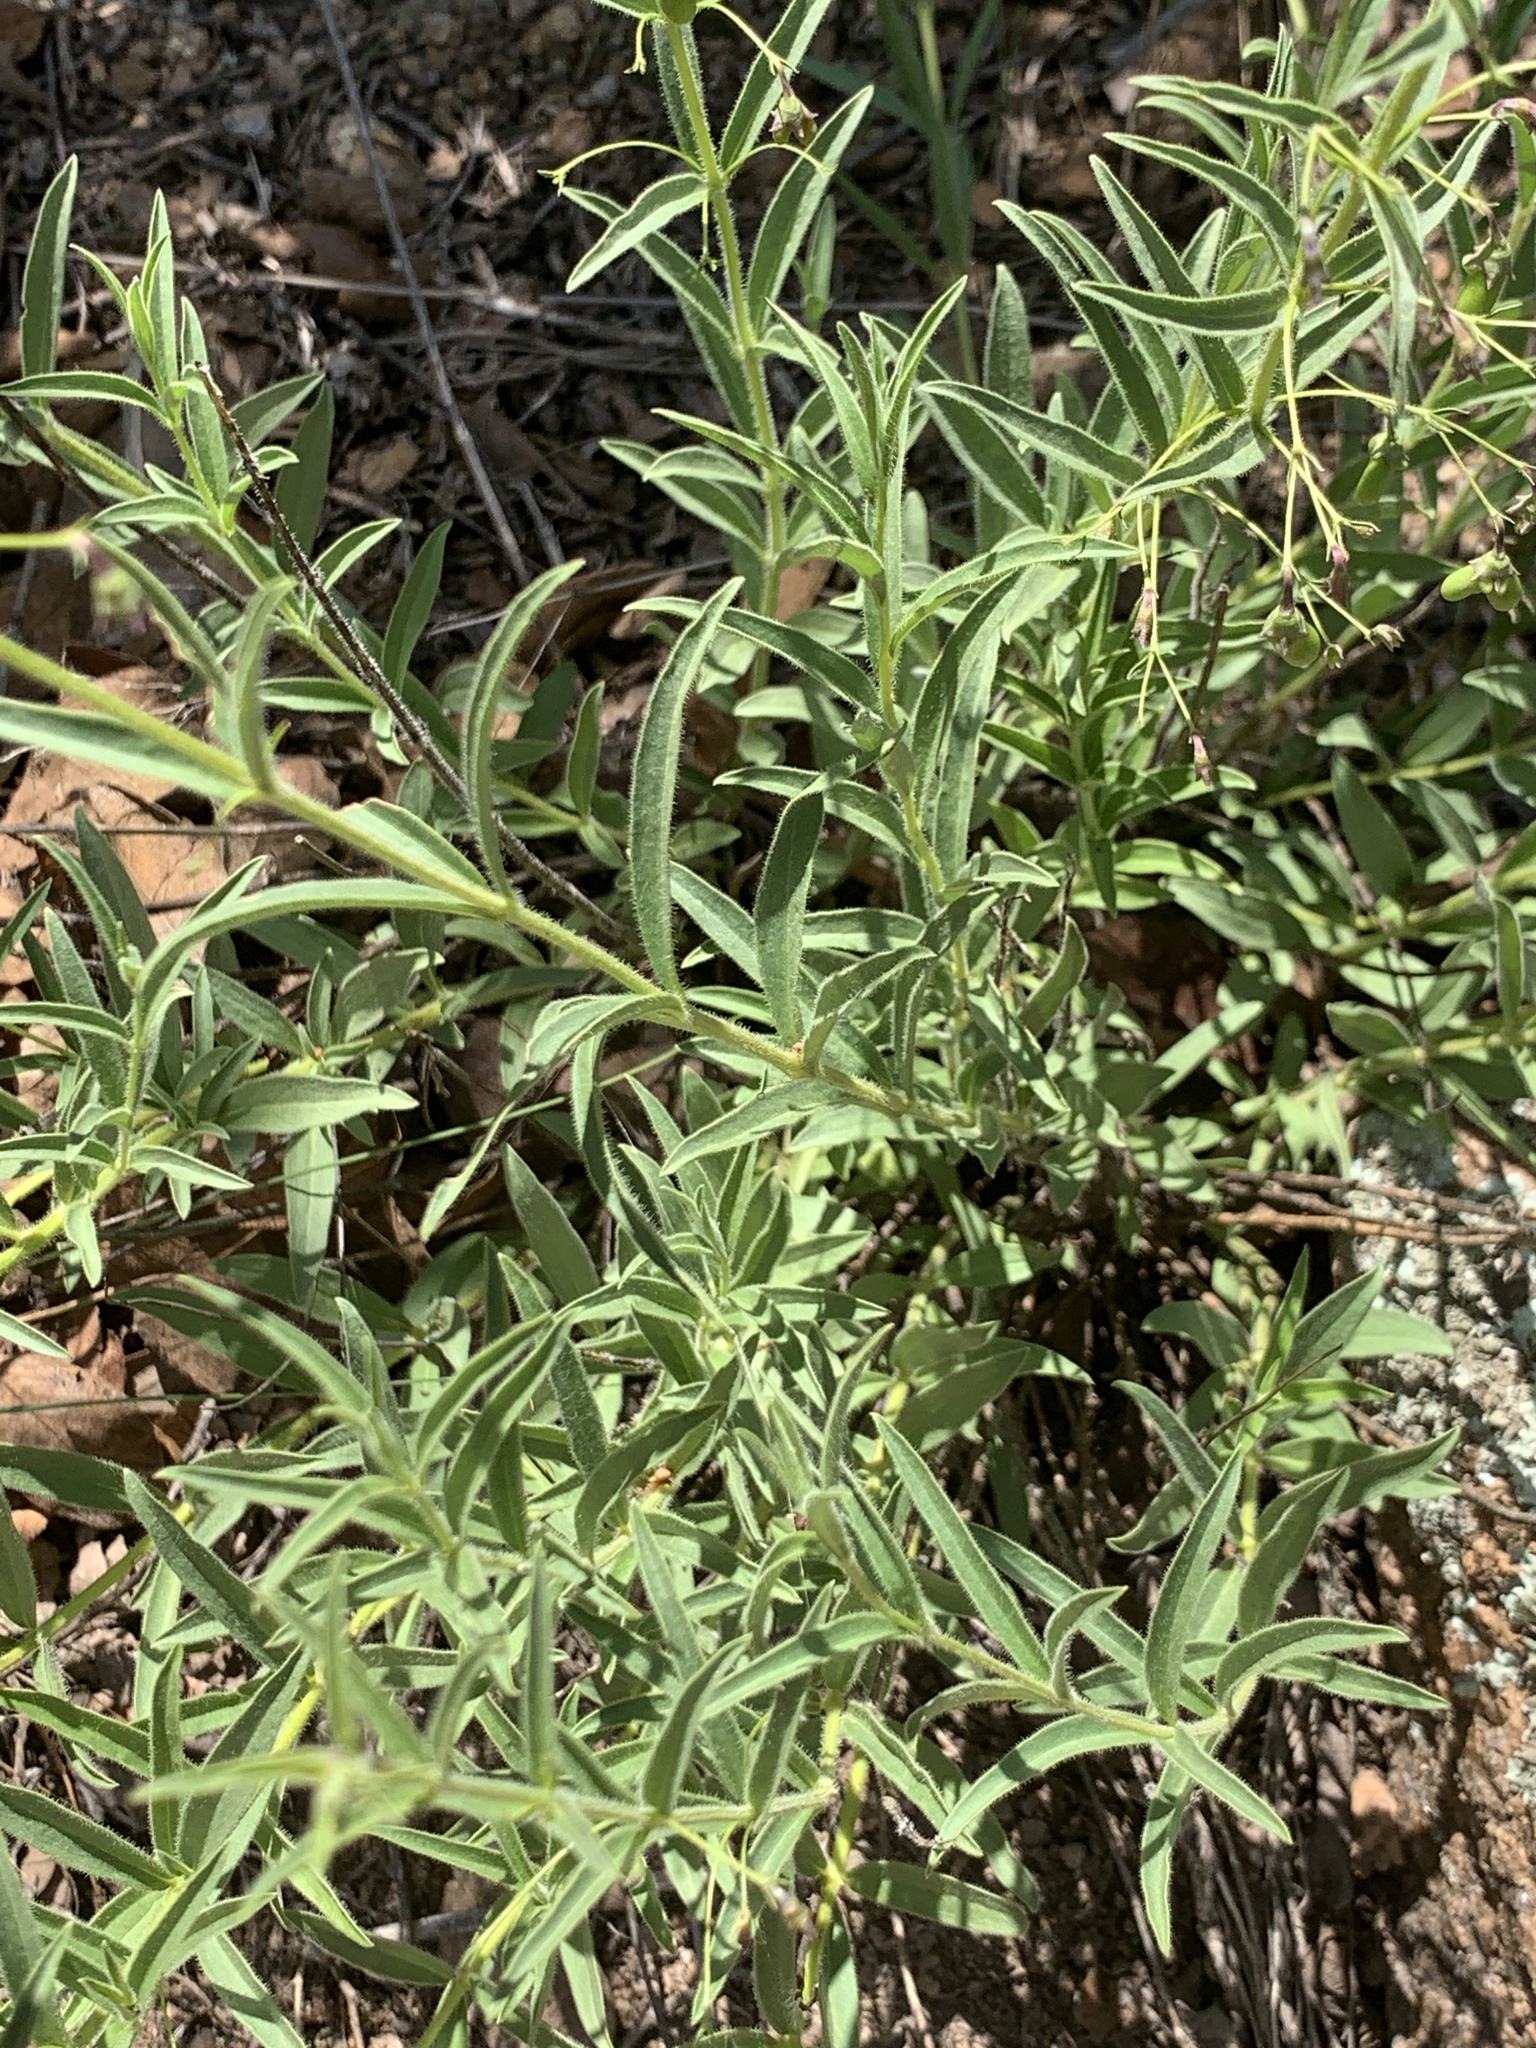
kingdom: Plantae
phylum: Tracheophyta
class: Magnoliopsida
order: Lamiales
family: Lamiaceae
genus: Rotheca
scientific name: Rotheca louwalbertsii
